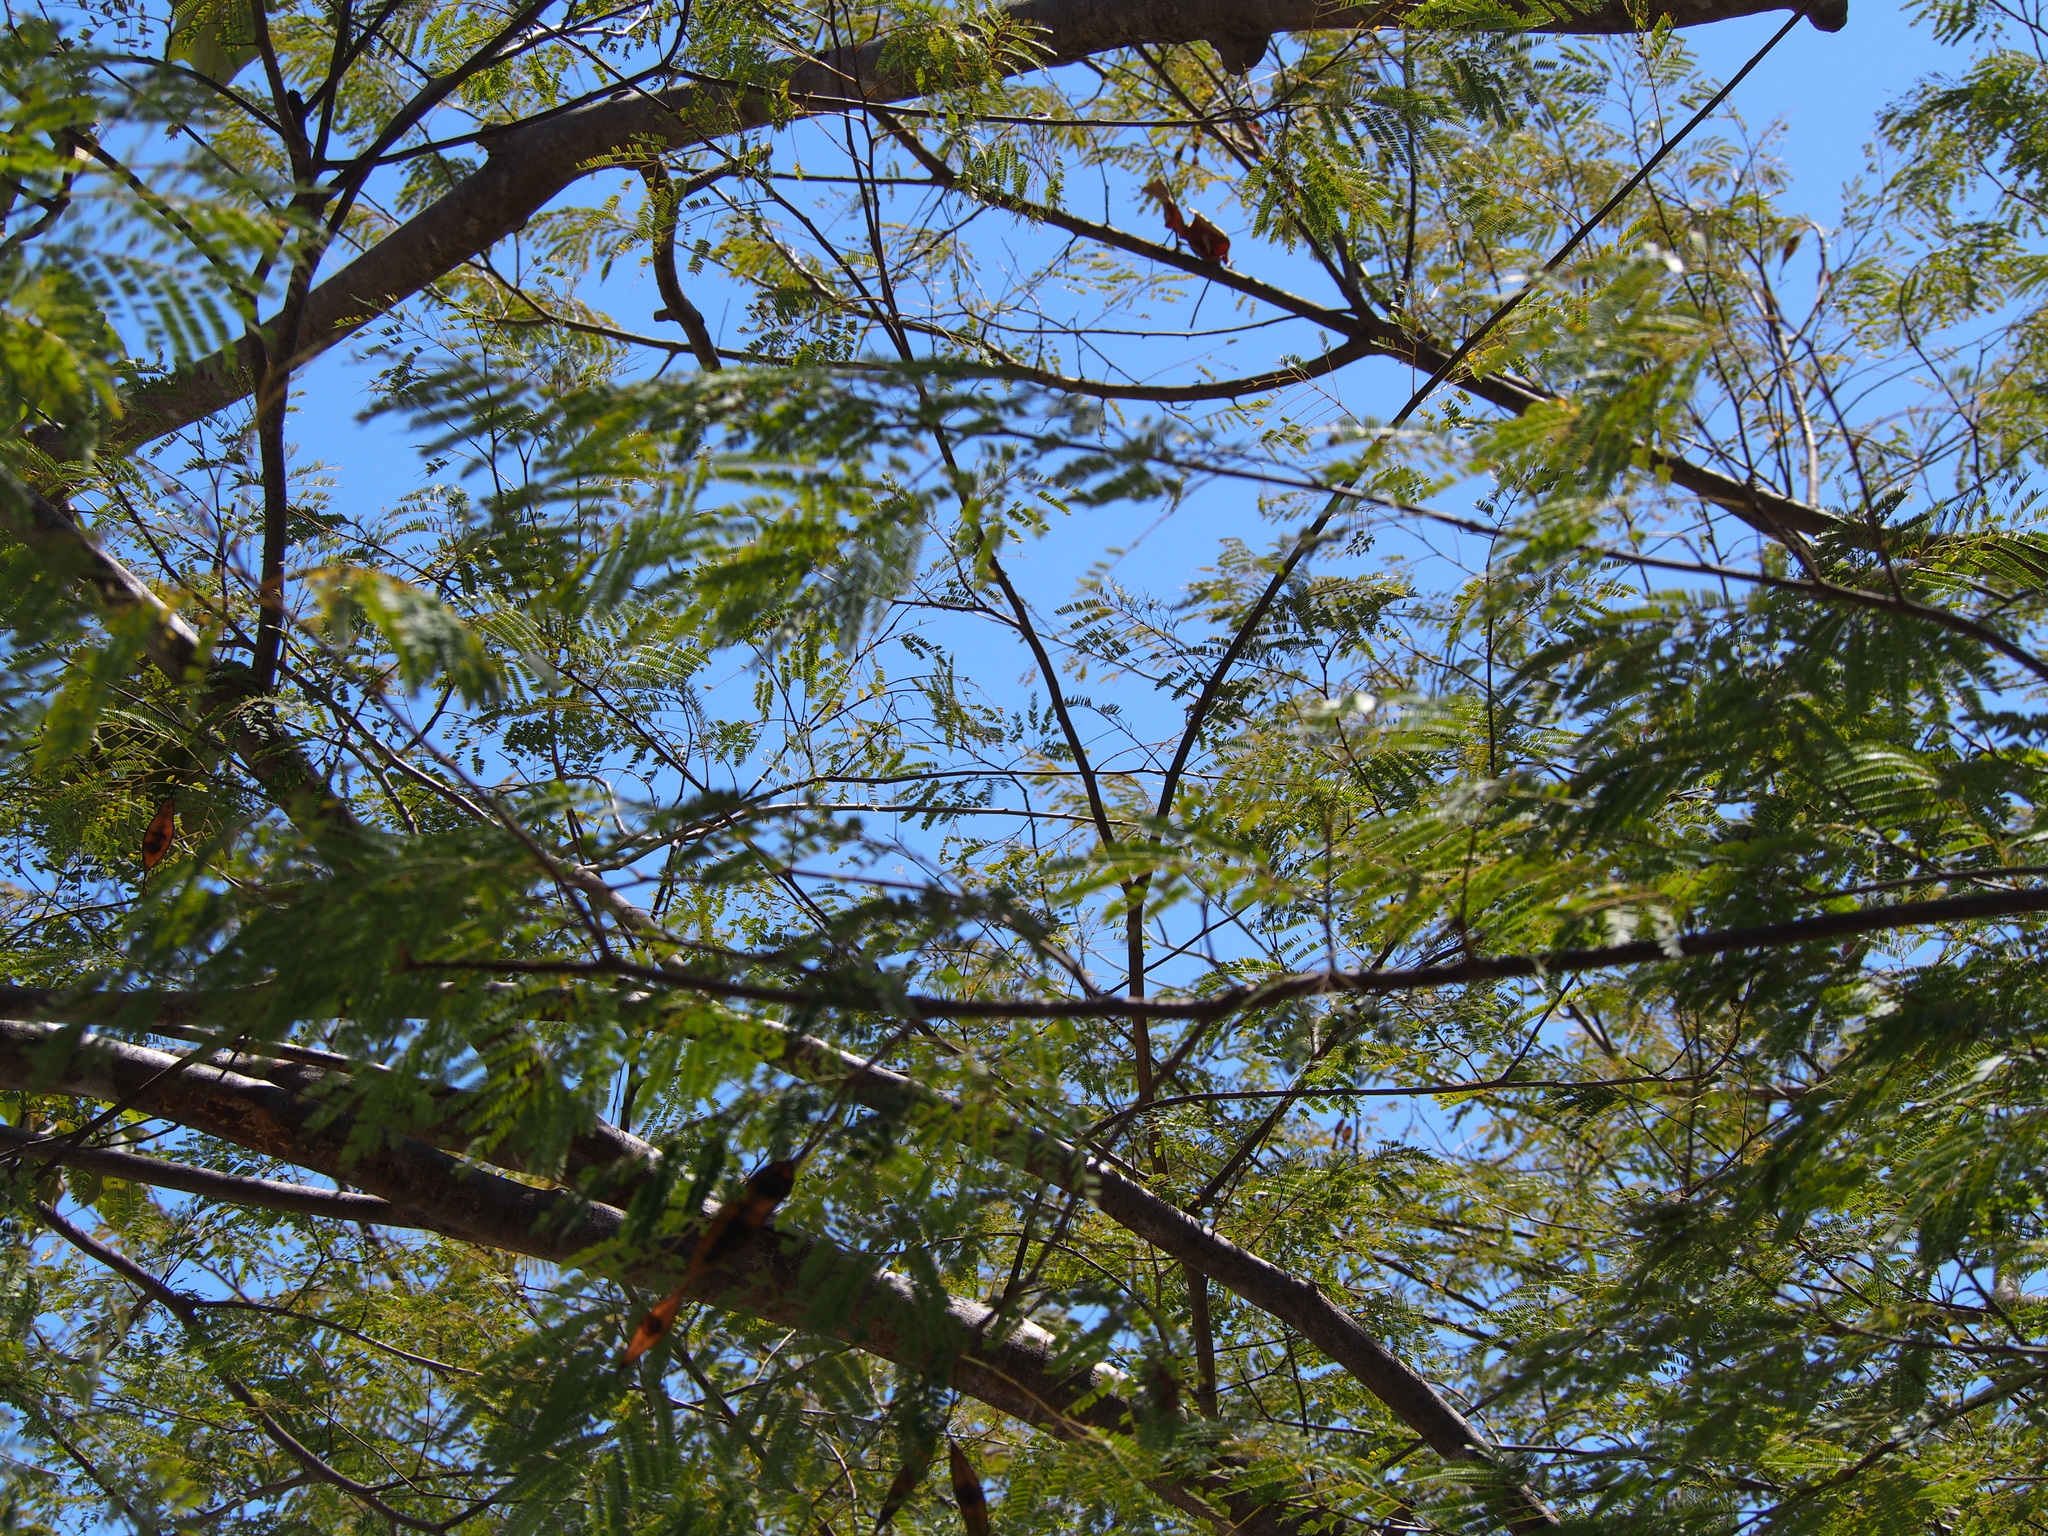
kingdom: Plantae
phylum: Tracheophyta
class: Magnoliopsida
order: Fabales
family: Fabaceae
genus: Delonix
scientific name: Delonix regia
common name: Royal poinciana
